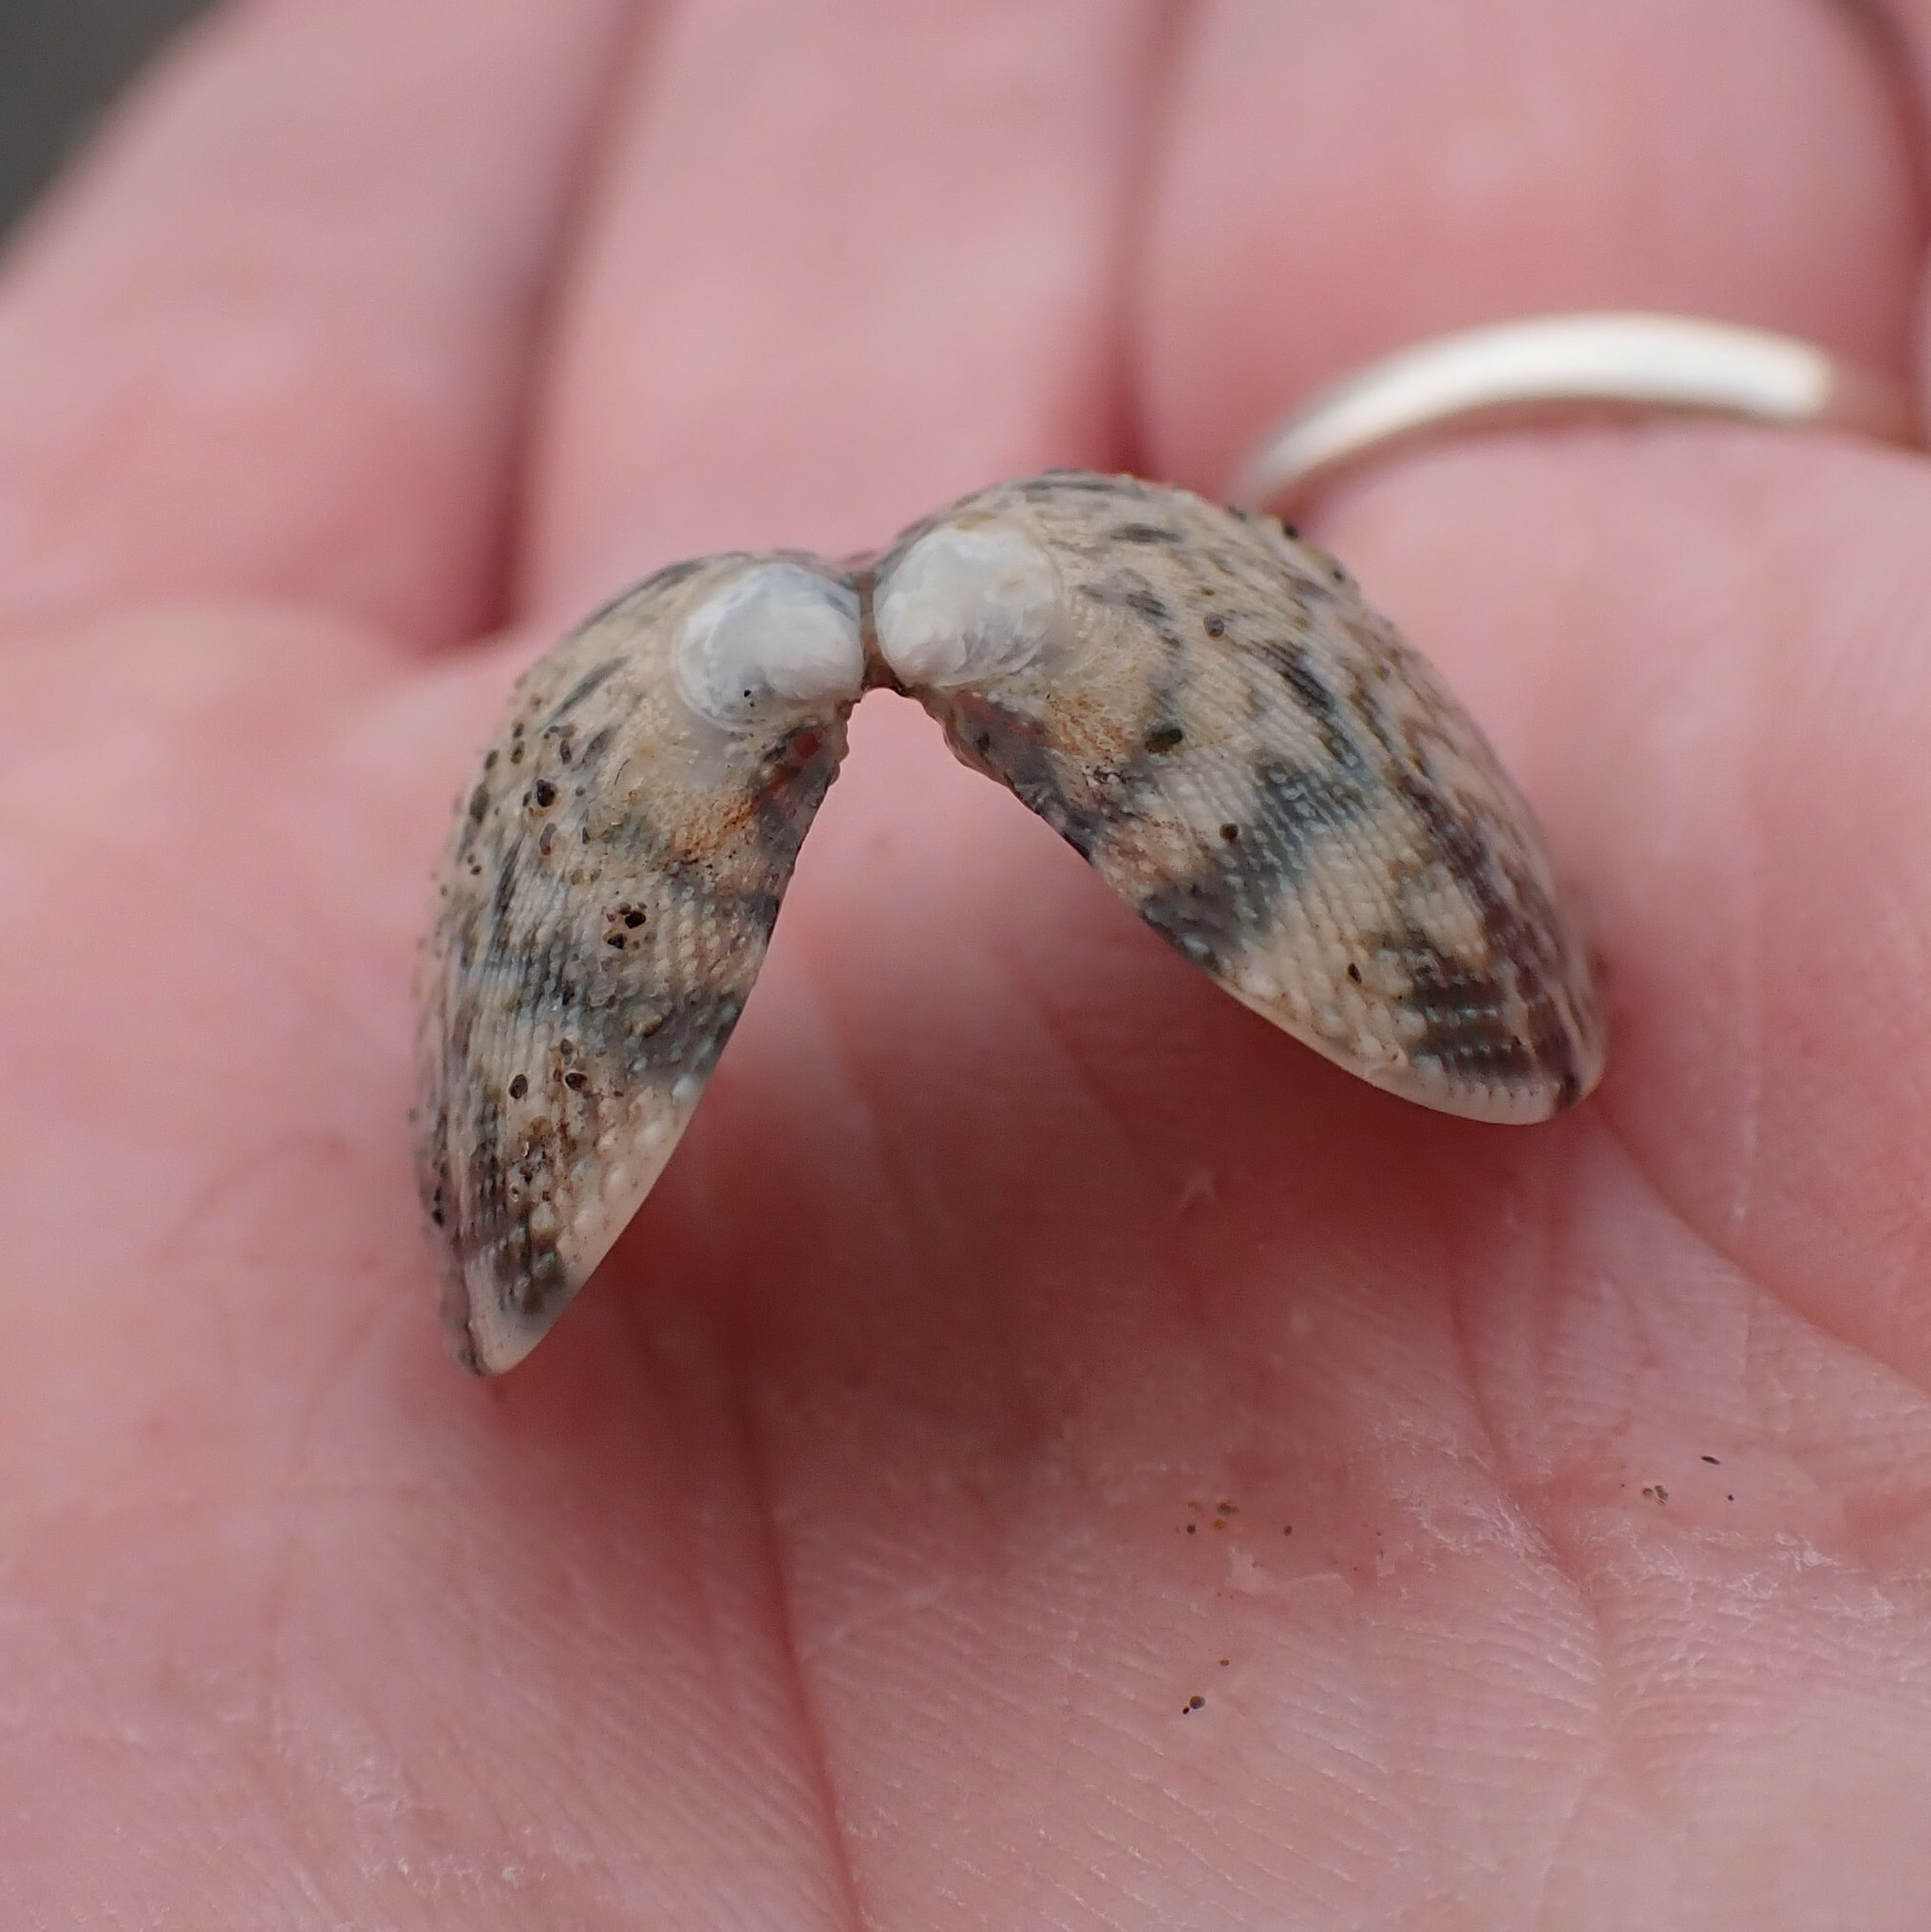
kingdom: Animalia
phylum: Mollusca
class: Bivalvia
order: Venerida
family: Veneridae
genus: Ruditapes
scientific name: Ruditapes philippinarum
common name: Manila clam
